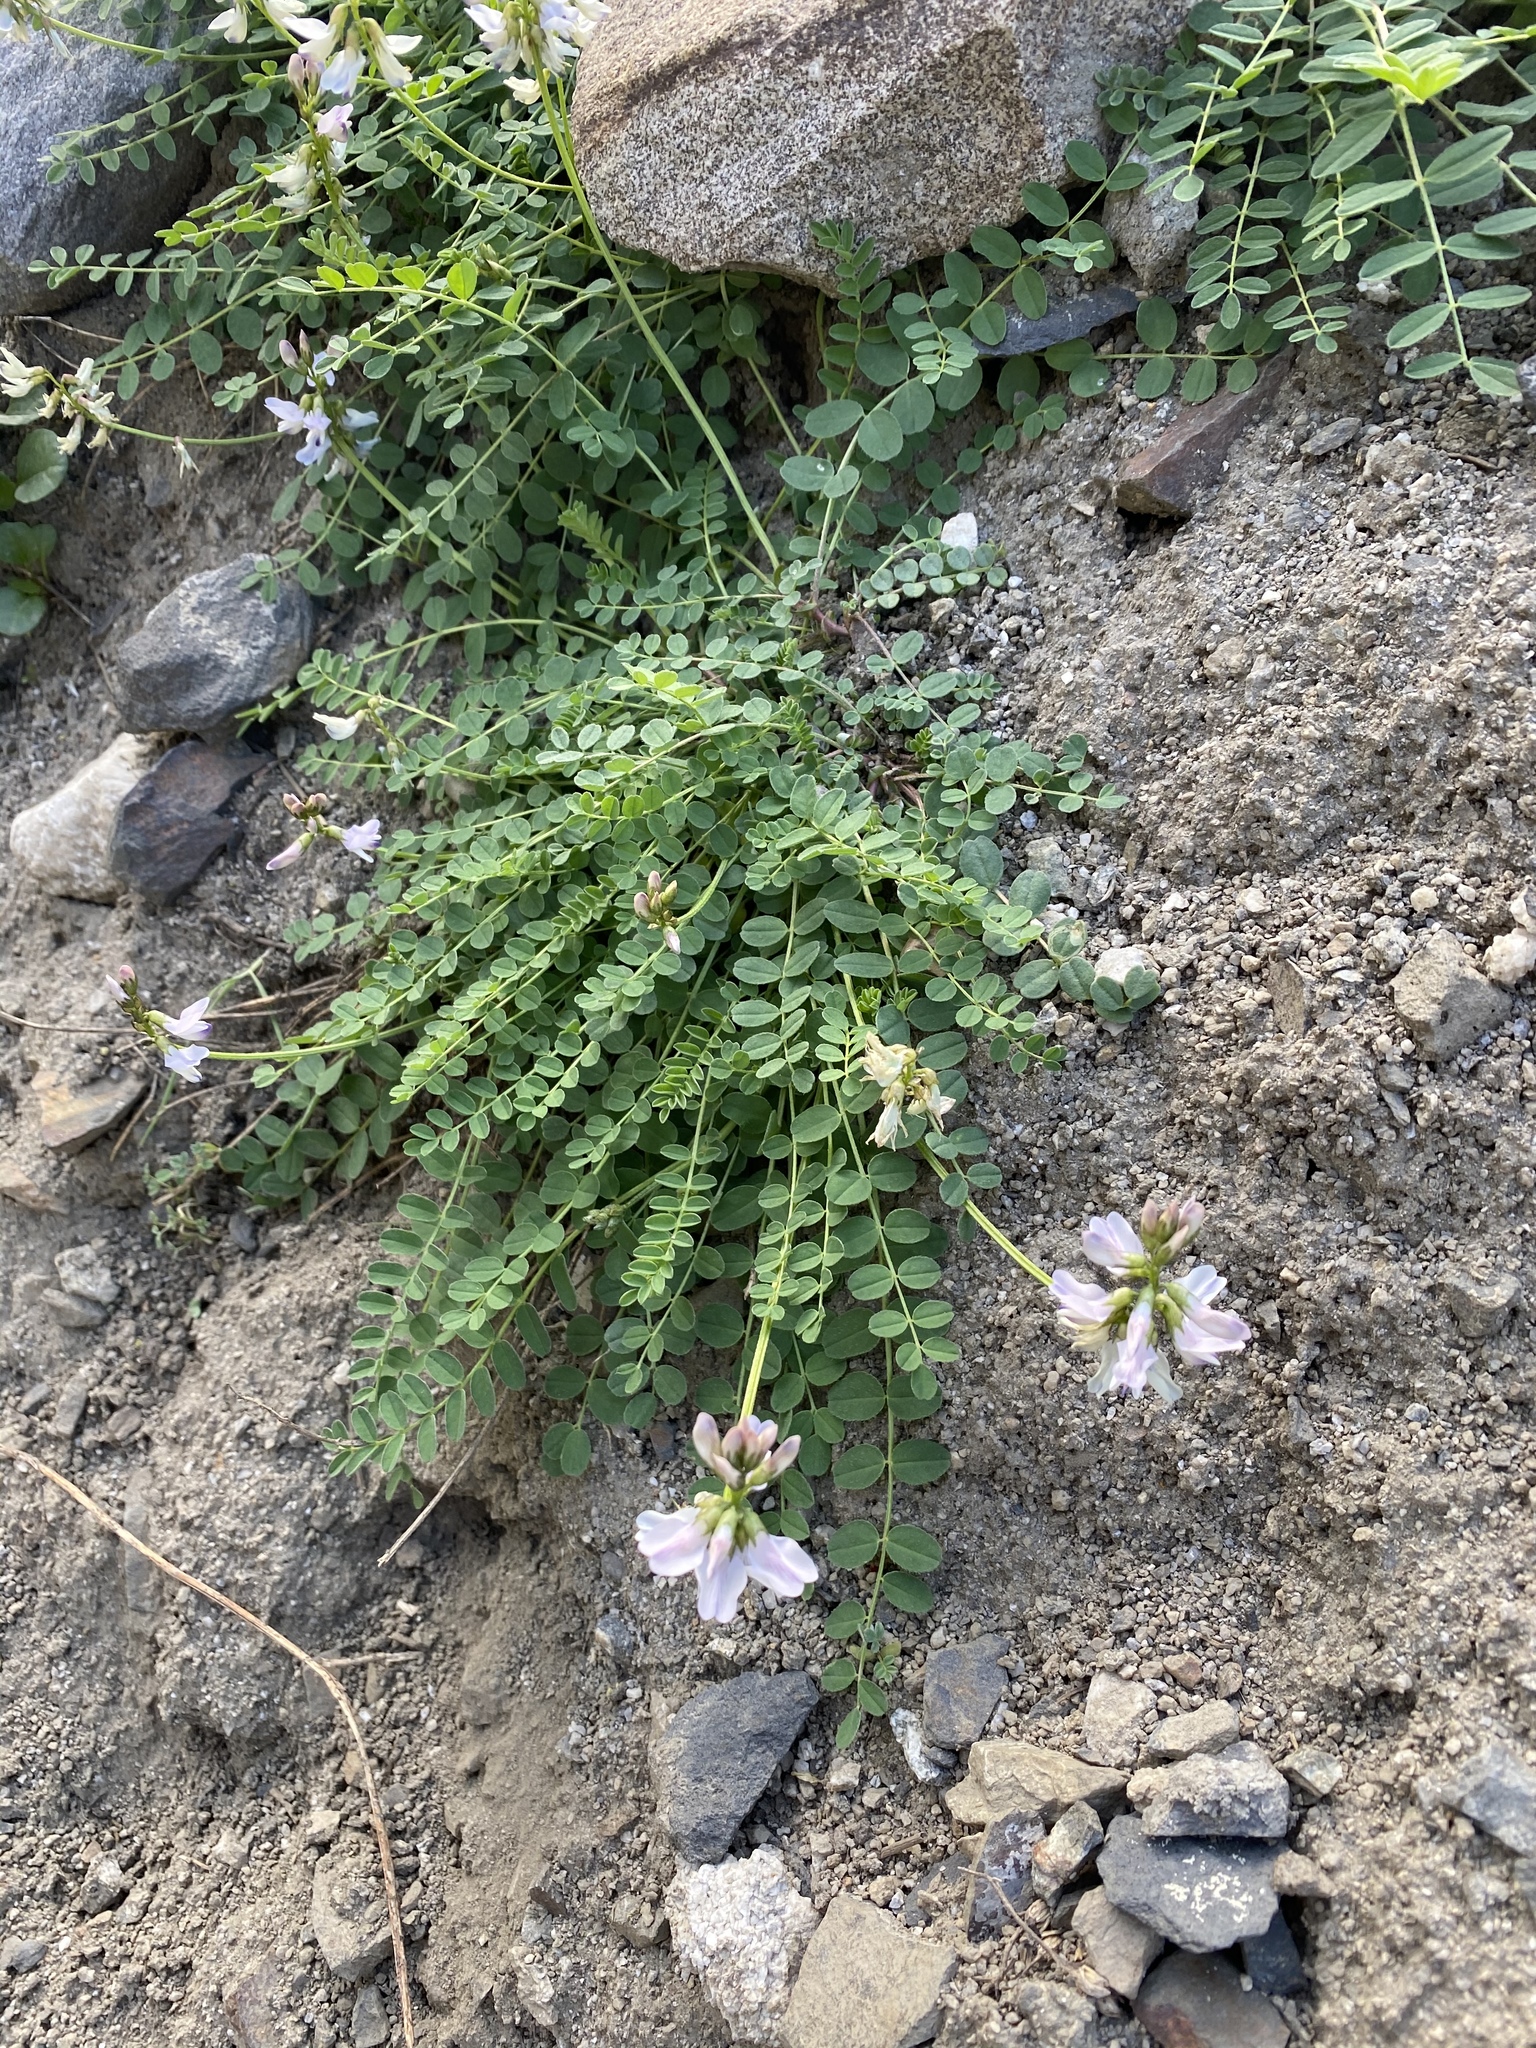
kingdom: Plantae
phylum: Tracheophyta
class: Magnoliopsida
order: Fabales
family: Fabaceae
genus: Astragalus
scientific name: Astragalus alpinus
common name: Alpine milk-vetch
